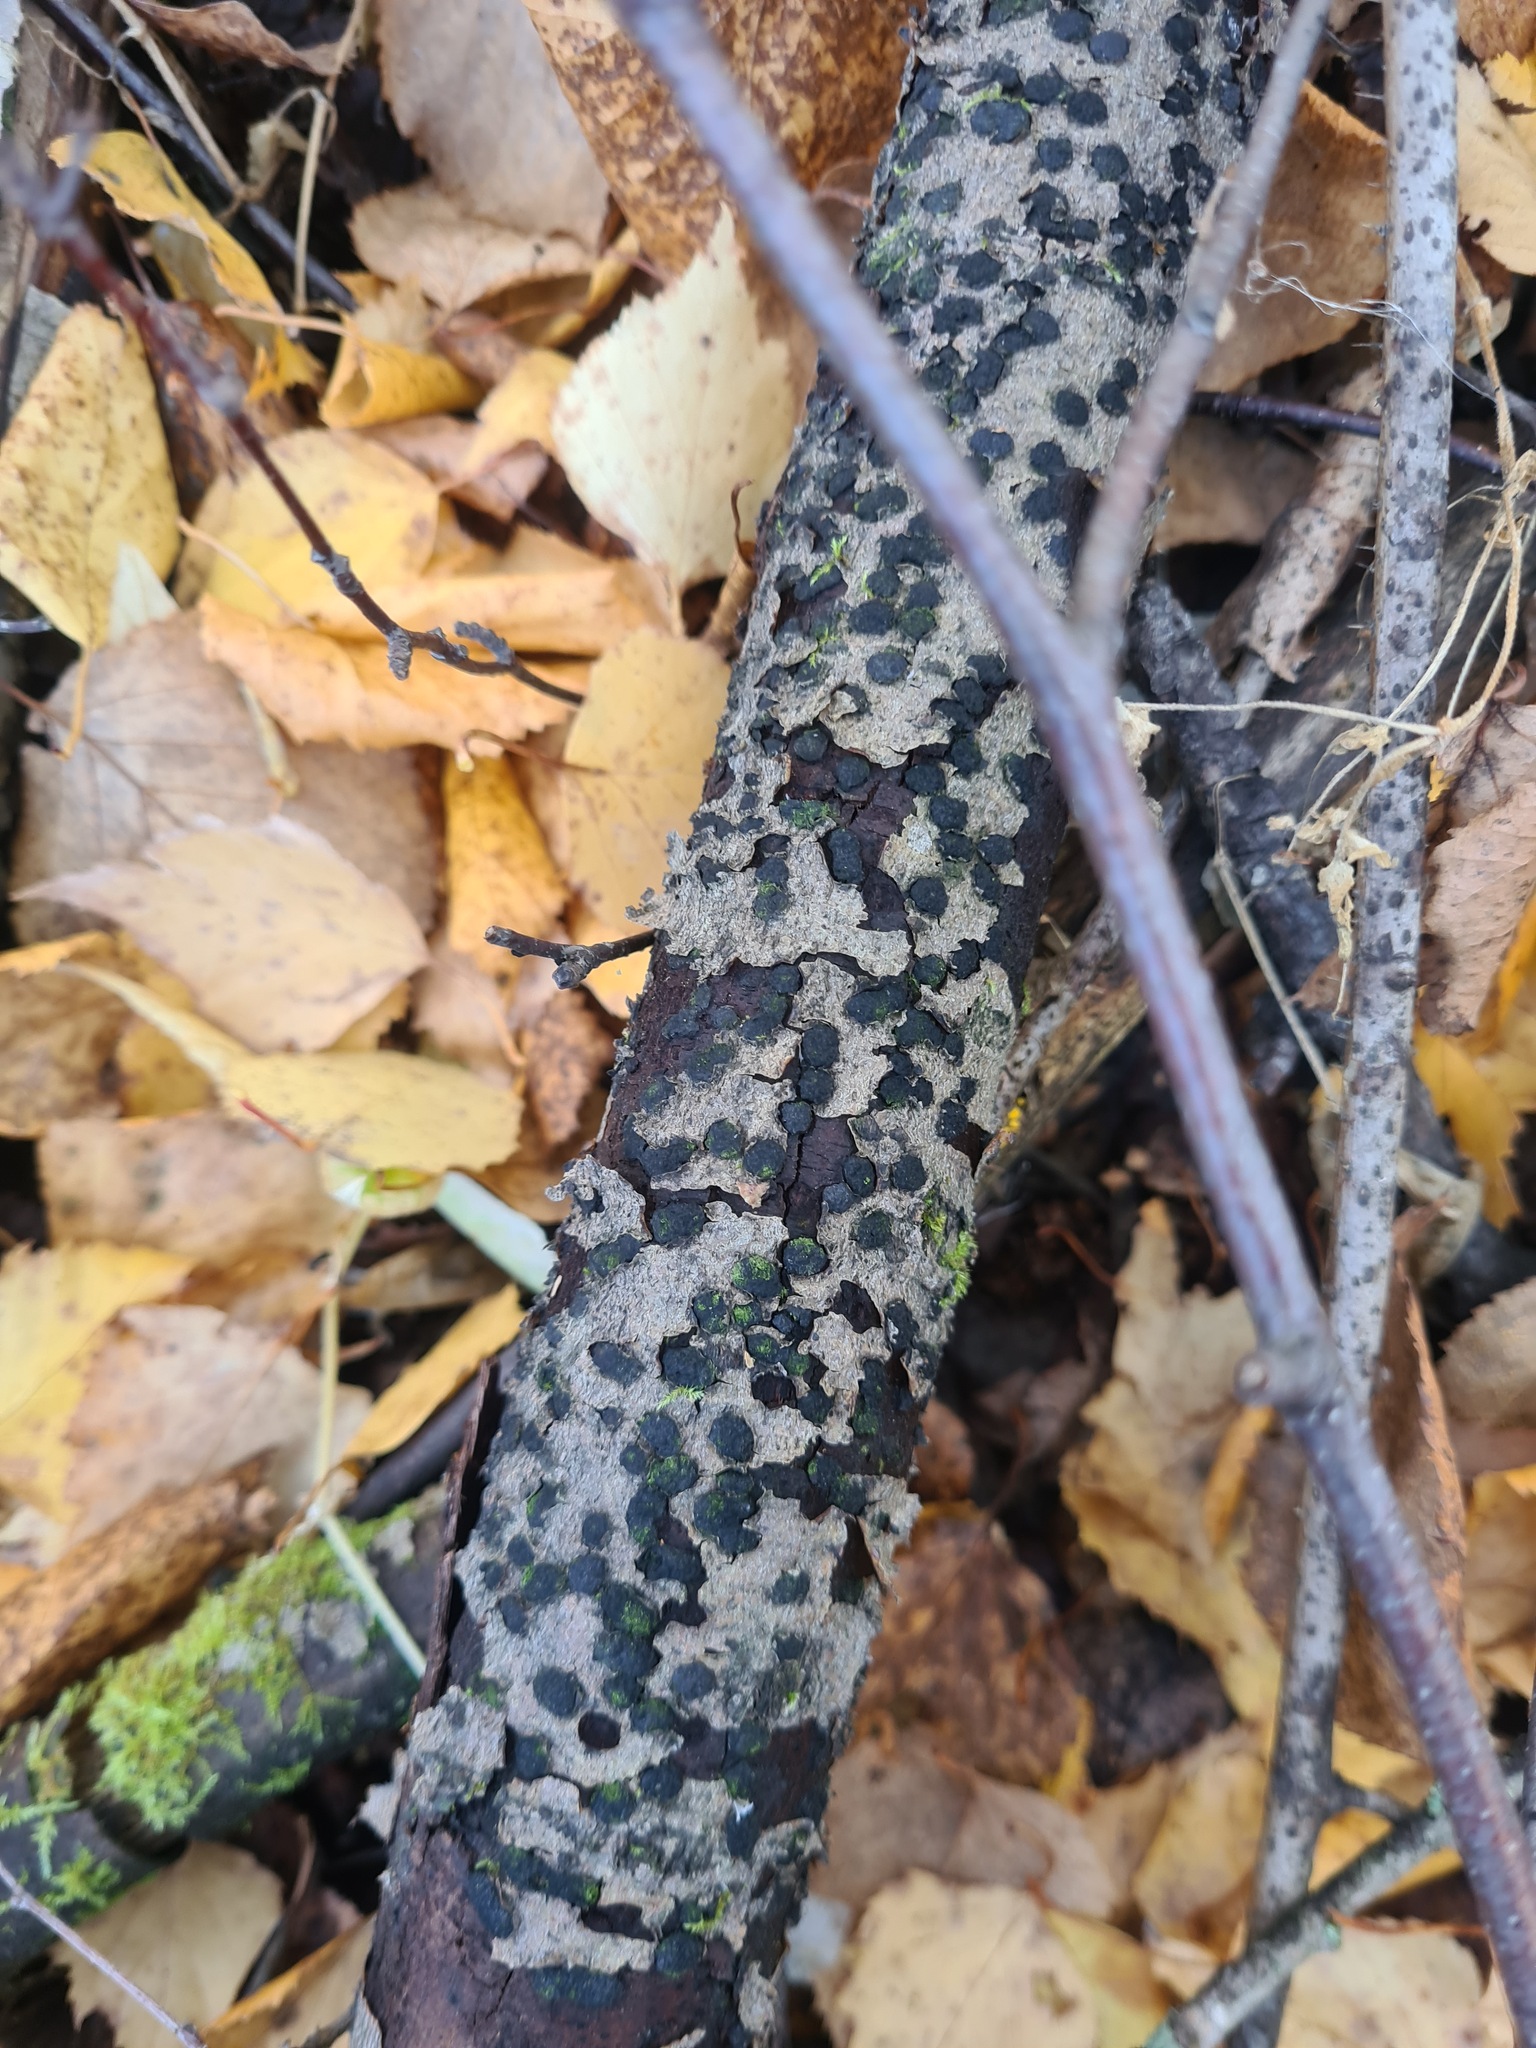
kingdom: Fungi
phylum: Ascomycota
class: Sordariomycetes
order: Xylariales
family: Hypoxylaceae
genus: Jackrogersella
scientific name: Jackrogersella multiformis
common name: Birch woodwart
